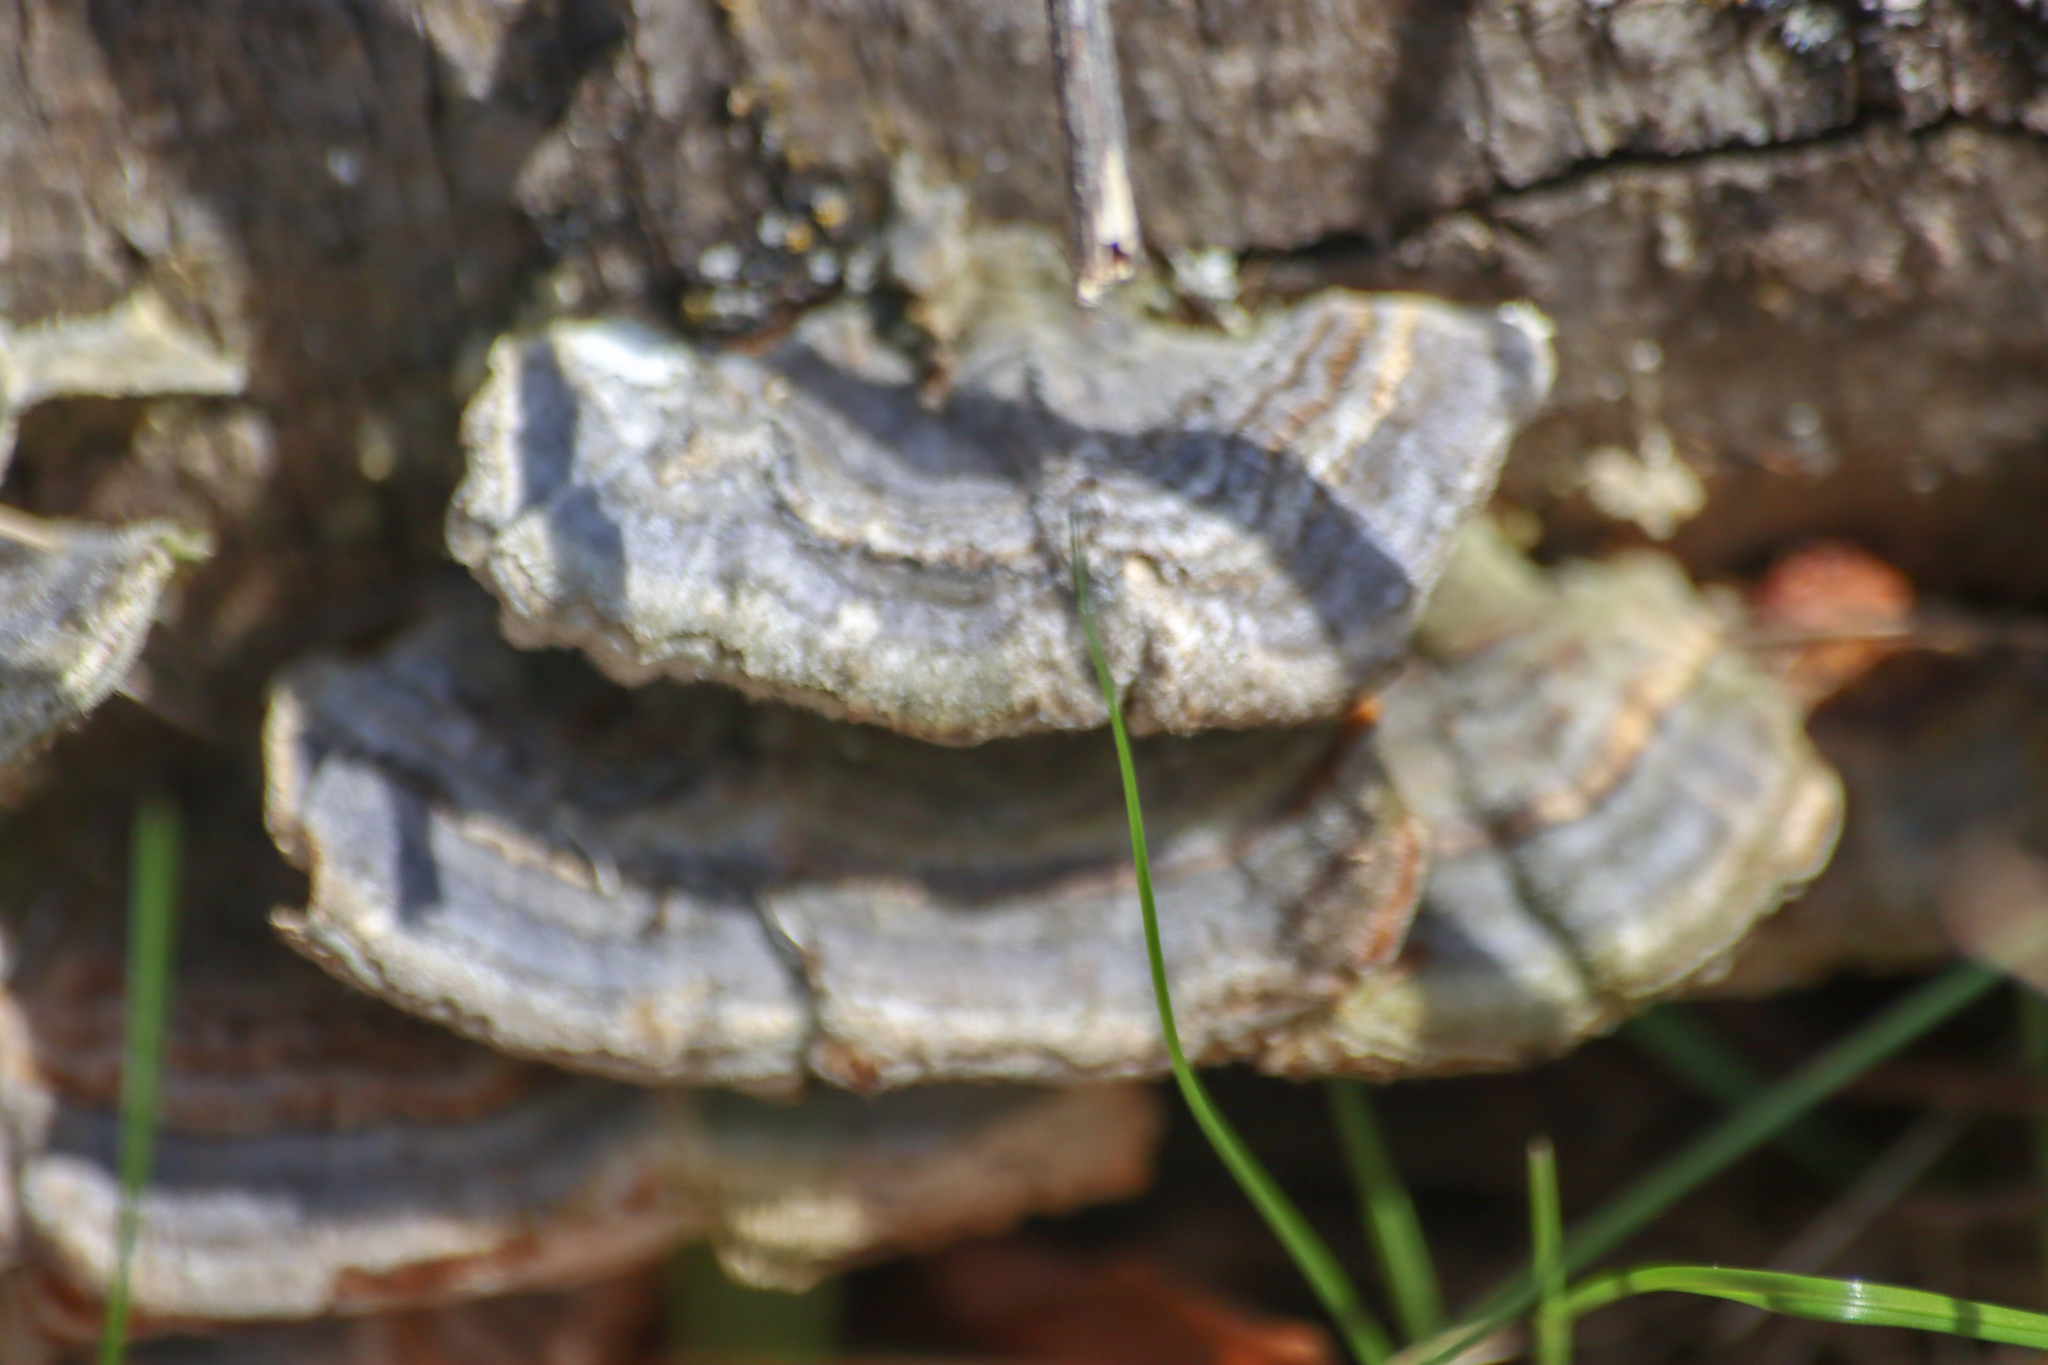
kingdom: Fungi
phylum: Basidiomycota
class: Agaricomycetes
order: Polyporales
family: Polyporaceae
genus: Trametes
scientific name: Trametes versicolor
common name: Turkeytail
